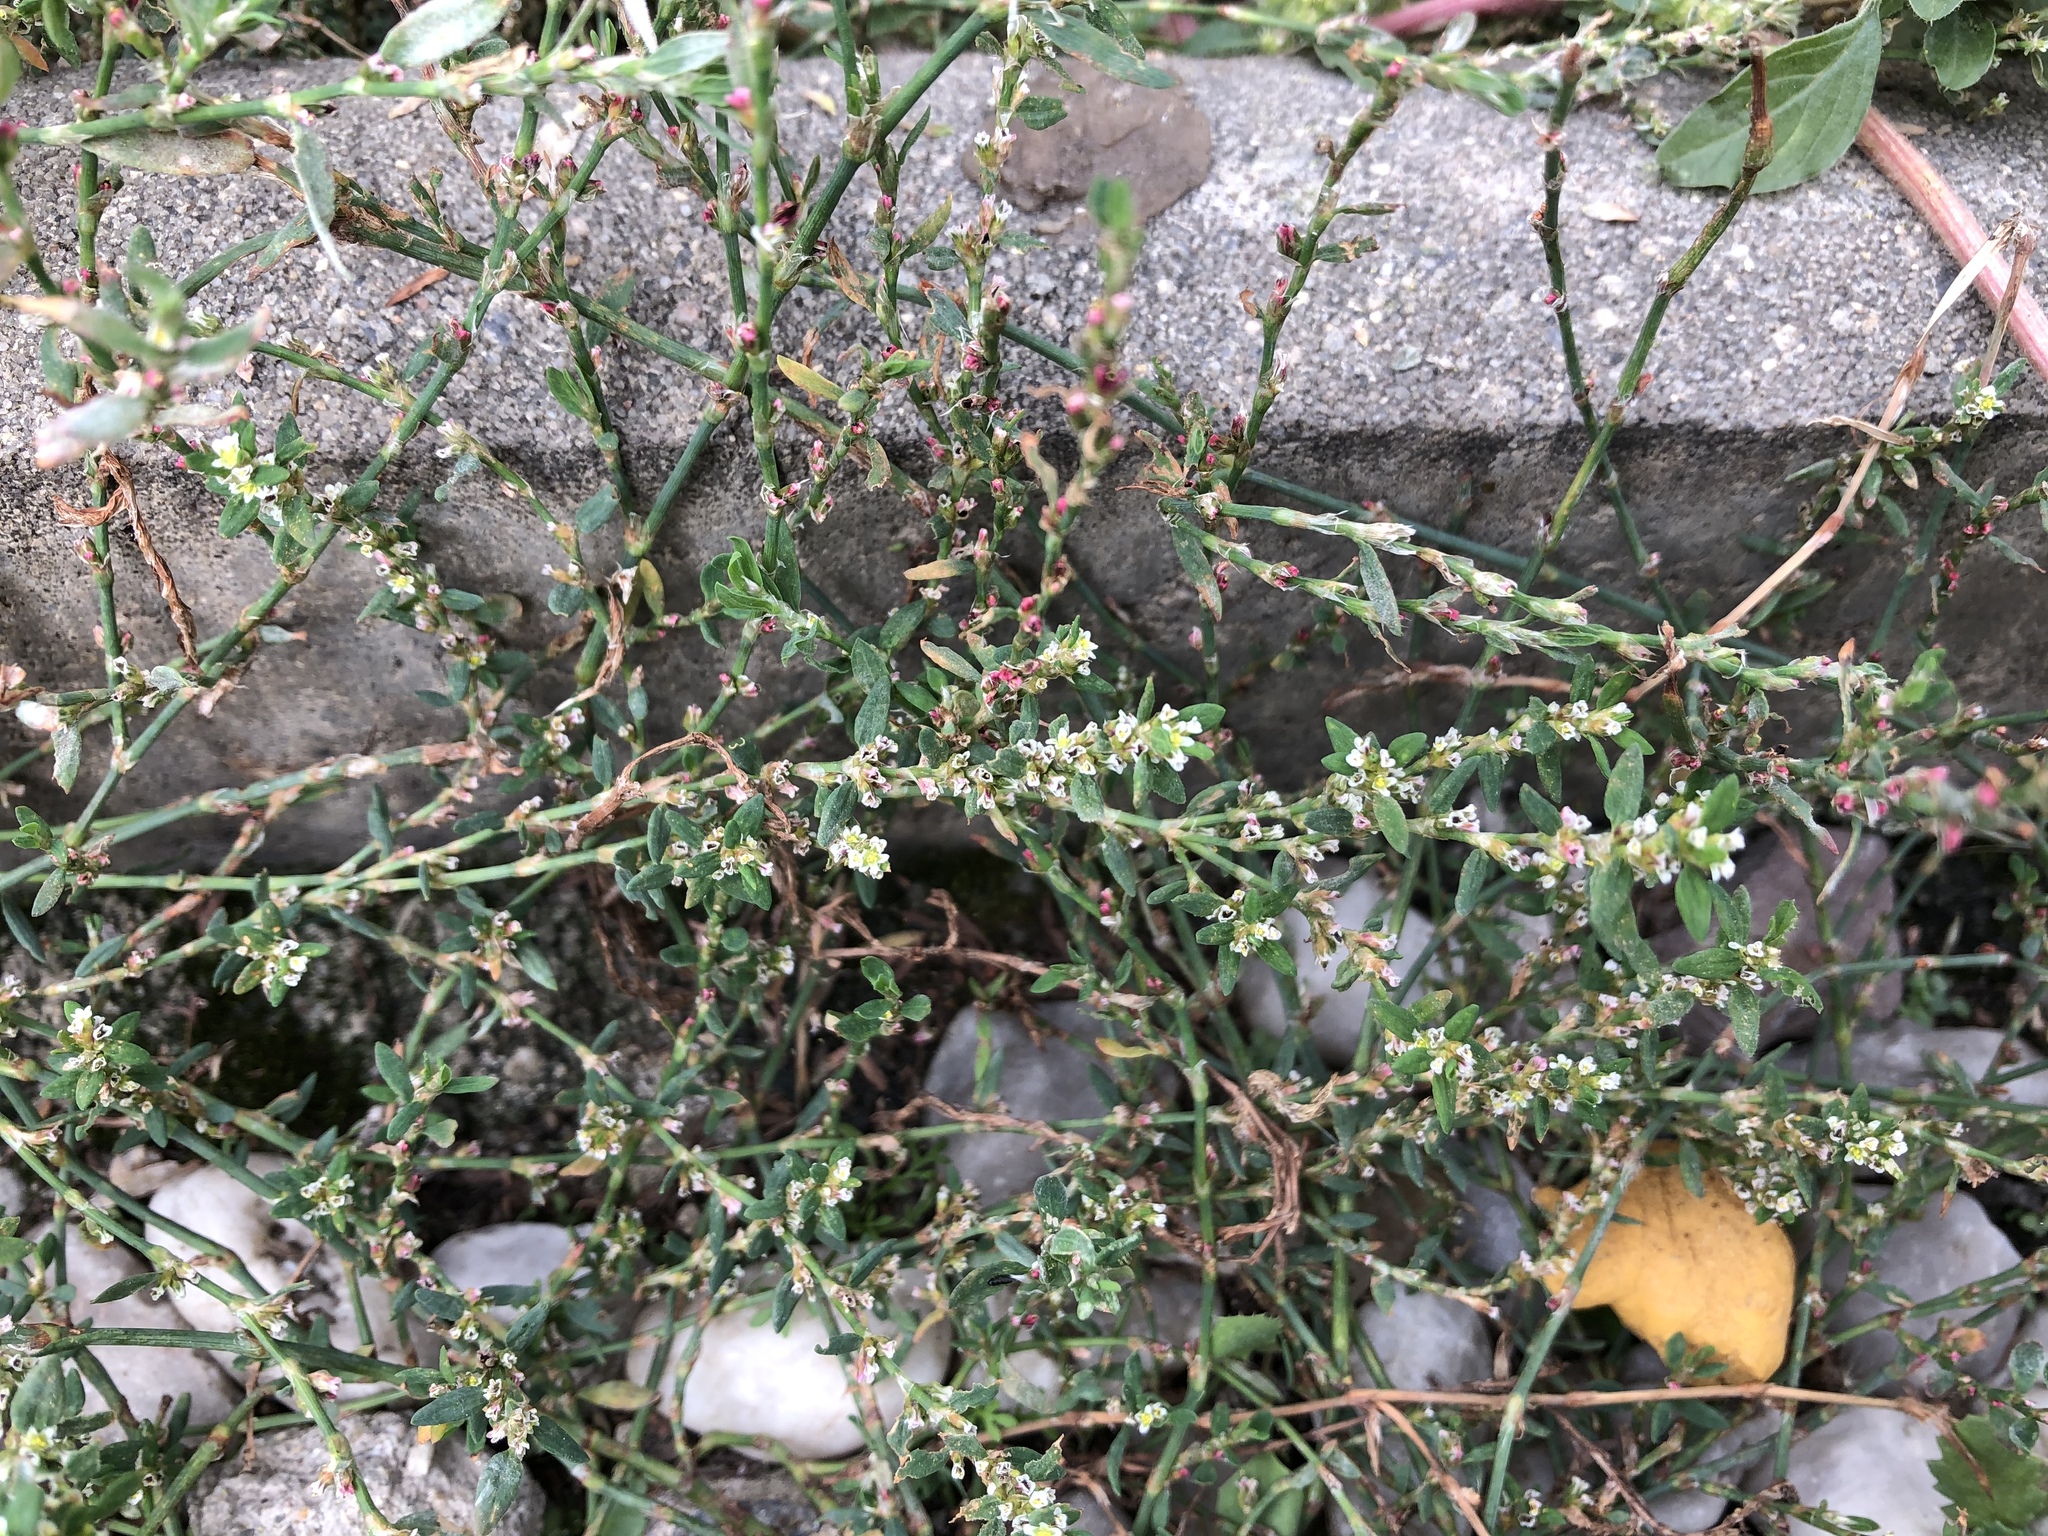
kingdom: Plantae
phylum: Tracheophyta
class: Magnoliopsida
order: Caryophyllales
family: Polygonaceae
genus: Polygonum
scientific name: Polygonum aviculare
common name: Prostrate knotweed
